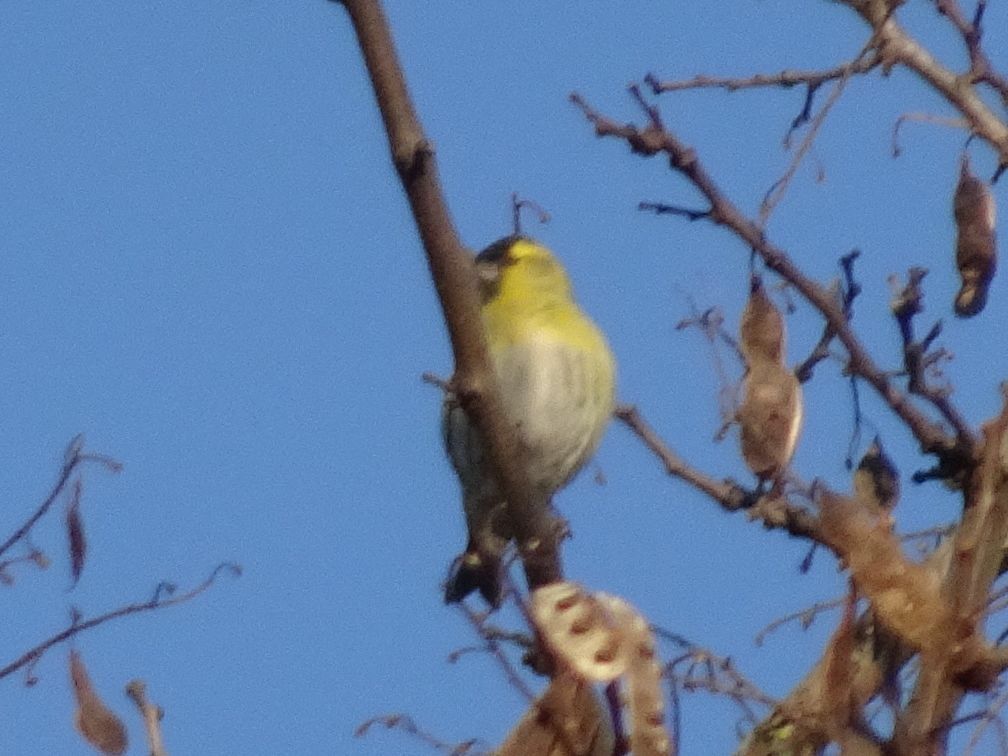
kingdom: Animalia
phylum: Chordata
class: Aves
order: Passeriformes
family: Fringillidae
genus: Spinus
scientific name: Spinus spinus
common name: Eurasian siskin
